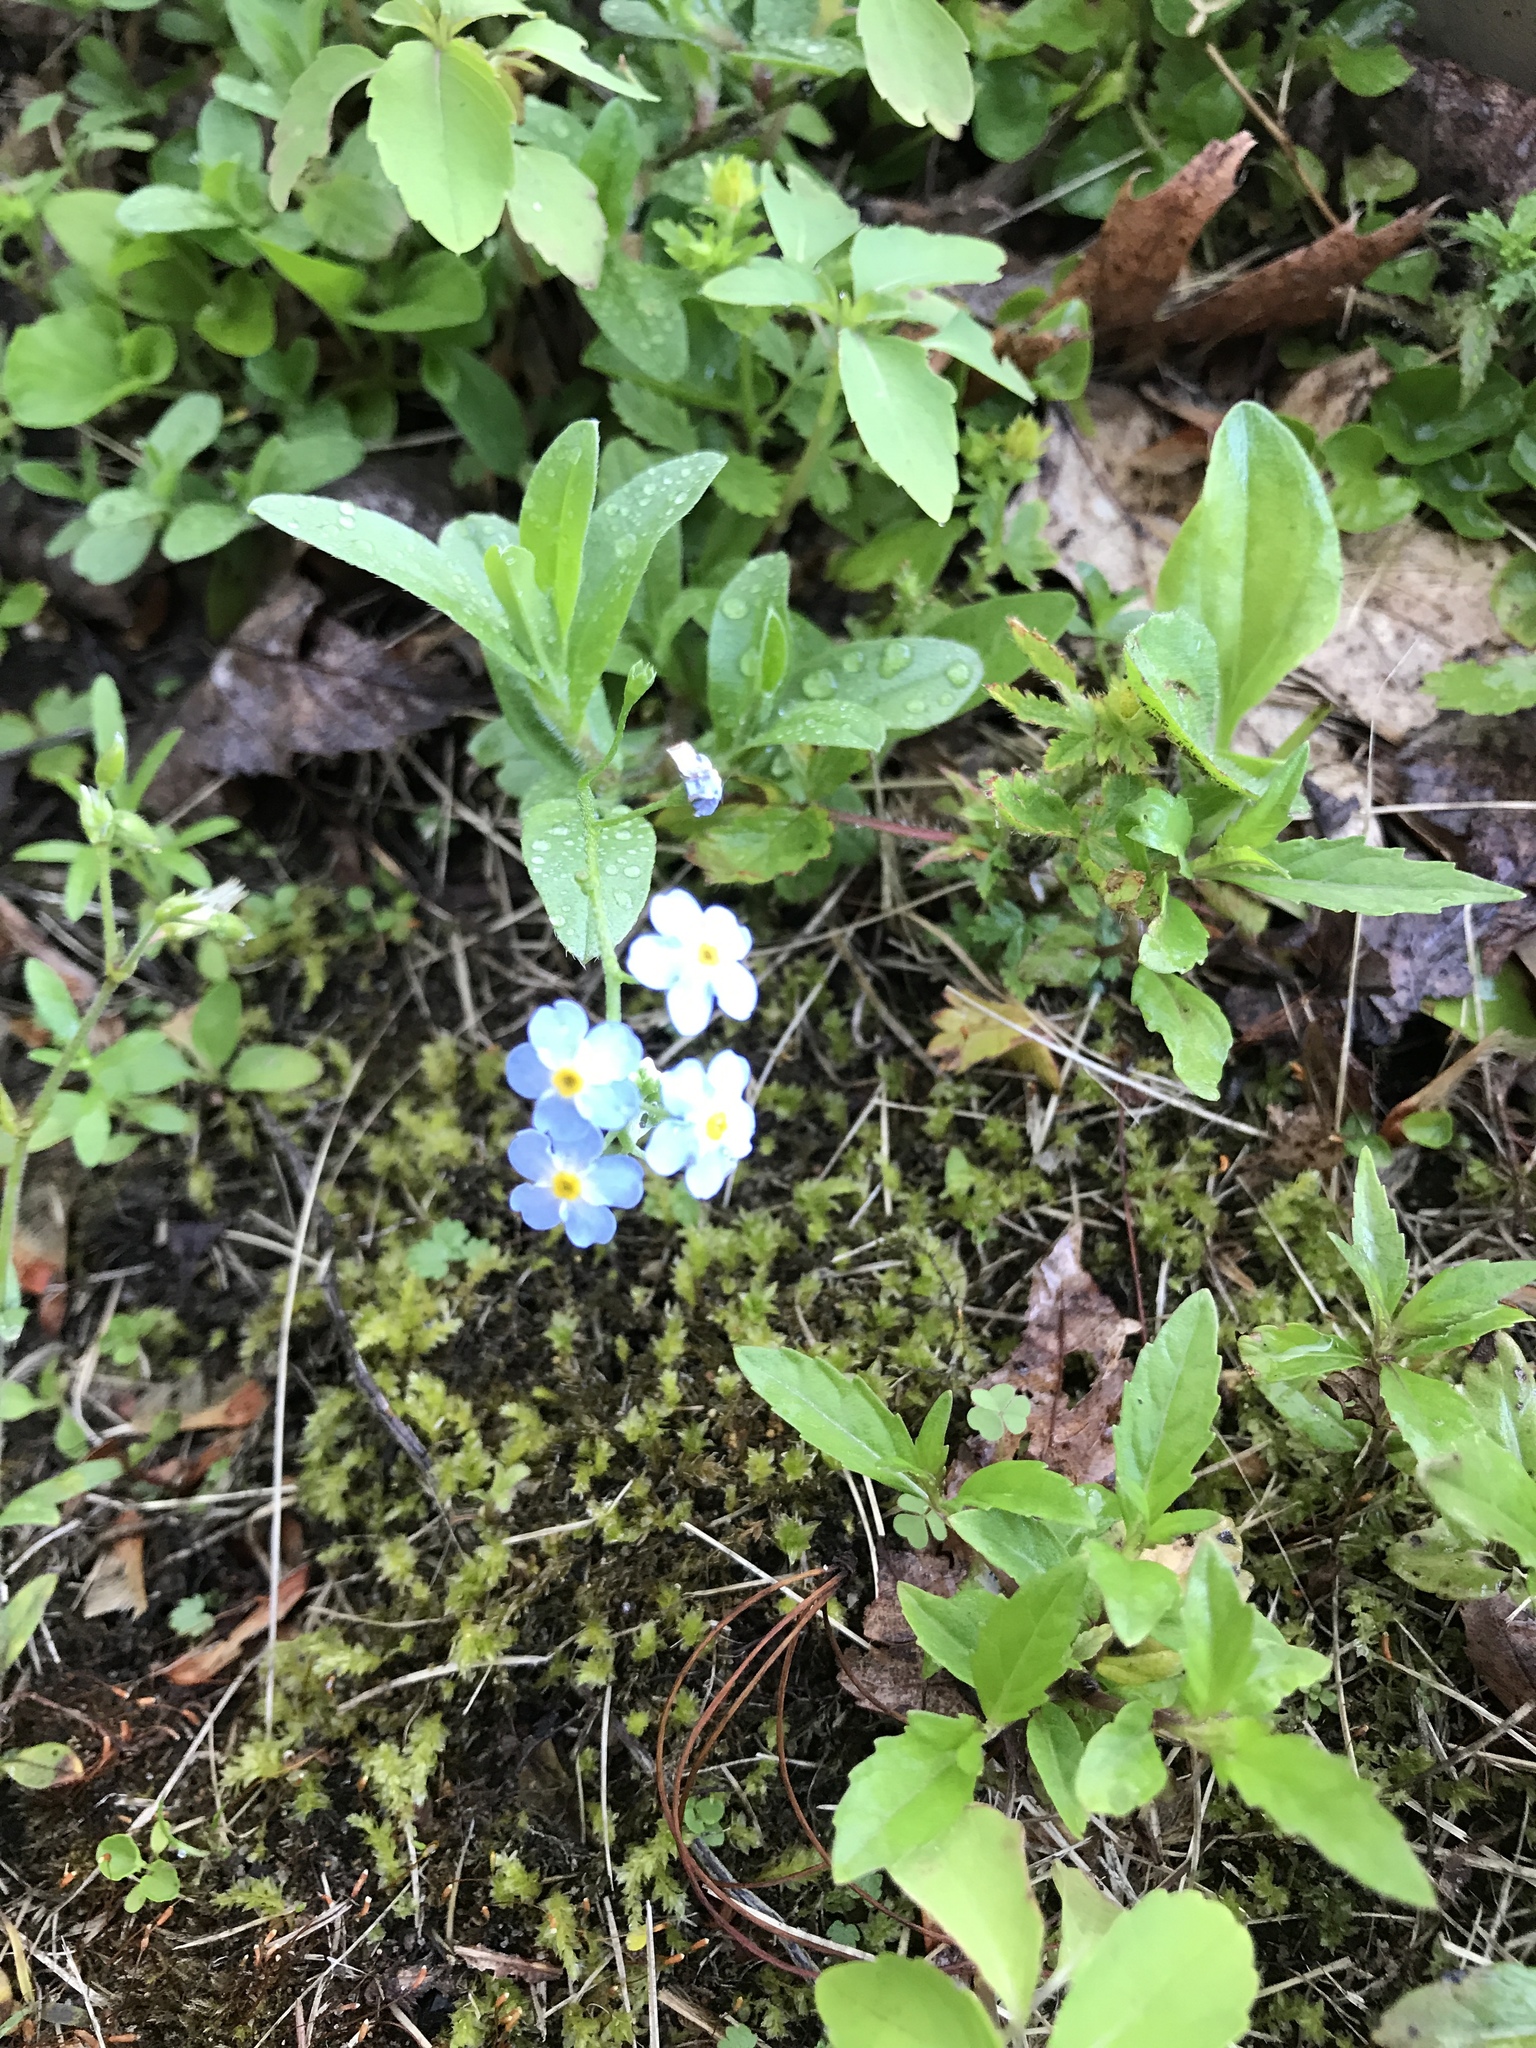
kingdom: Plantae
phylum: Tracheophyta
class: Magnoliopsida
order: Boraginales
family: Boraginaceae
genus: Myosotis
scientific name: Myosotis scorpioides
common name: Water forget-me-not
